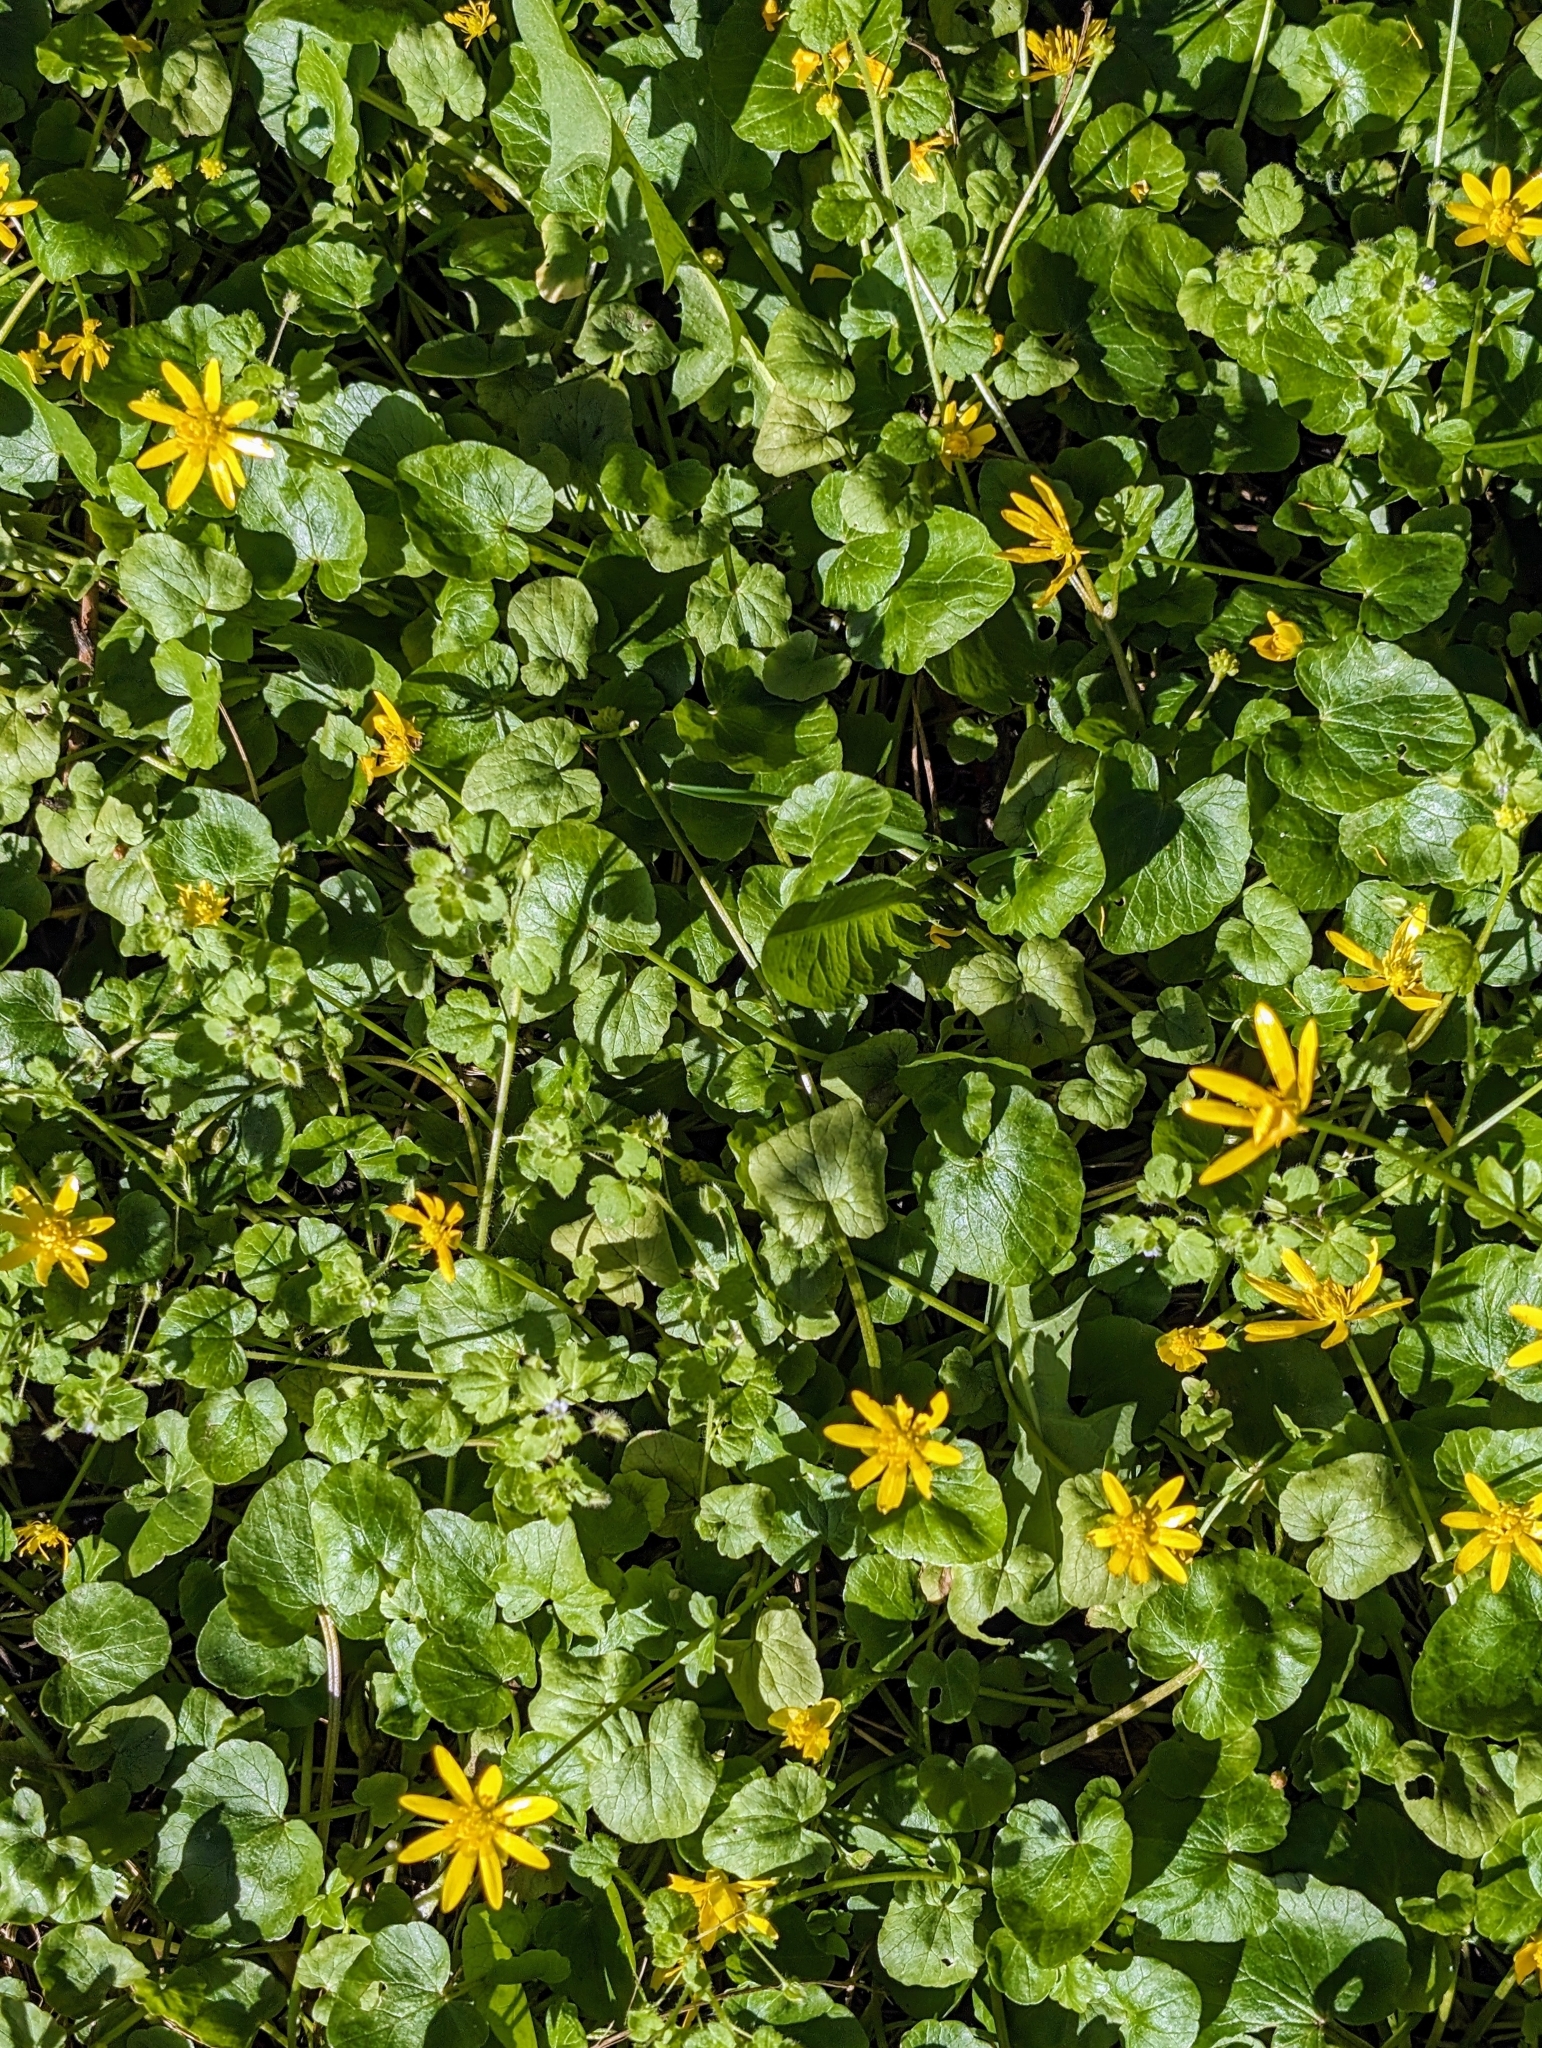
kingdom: Plantae
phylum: Tracheophyta
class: Magnoliopsida
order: Ranunculales
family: Ranunculaceae
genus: Ficaria
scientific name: Ficaria verna
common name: Lesser celandine
